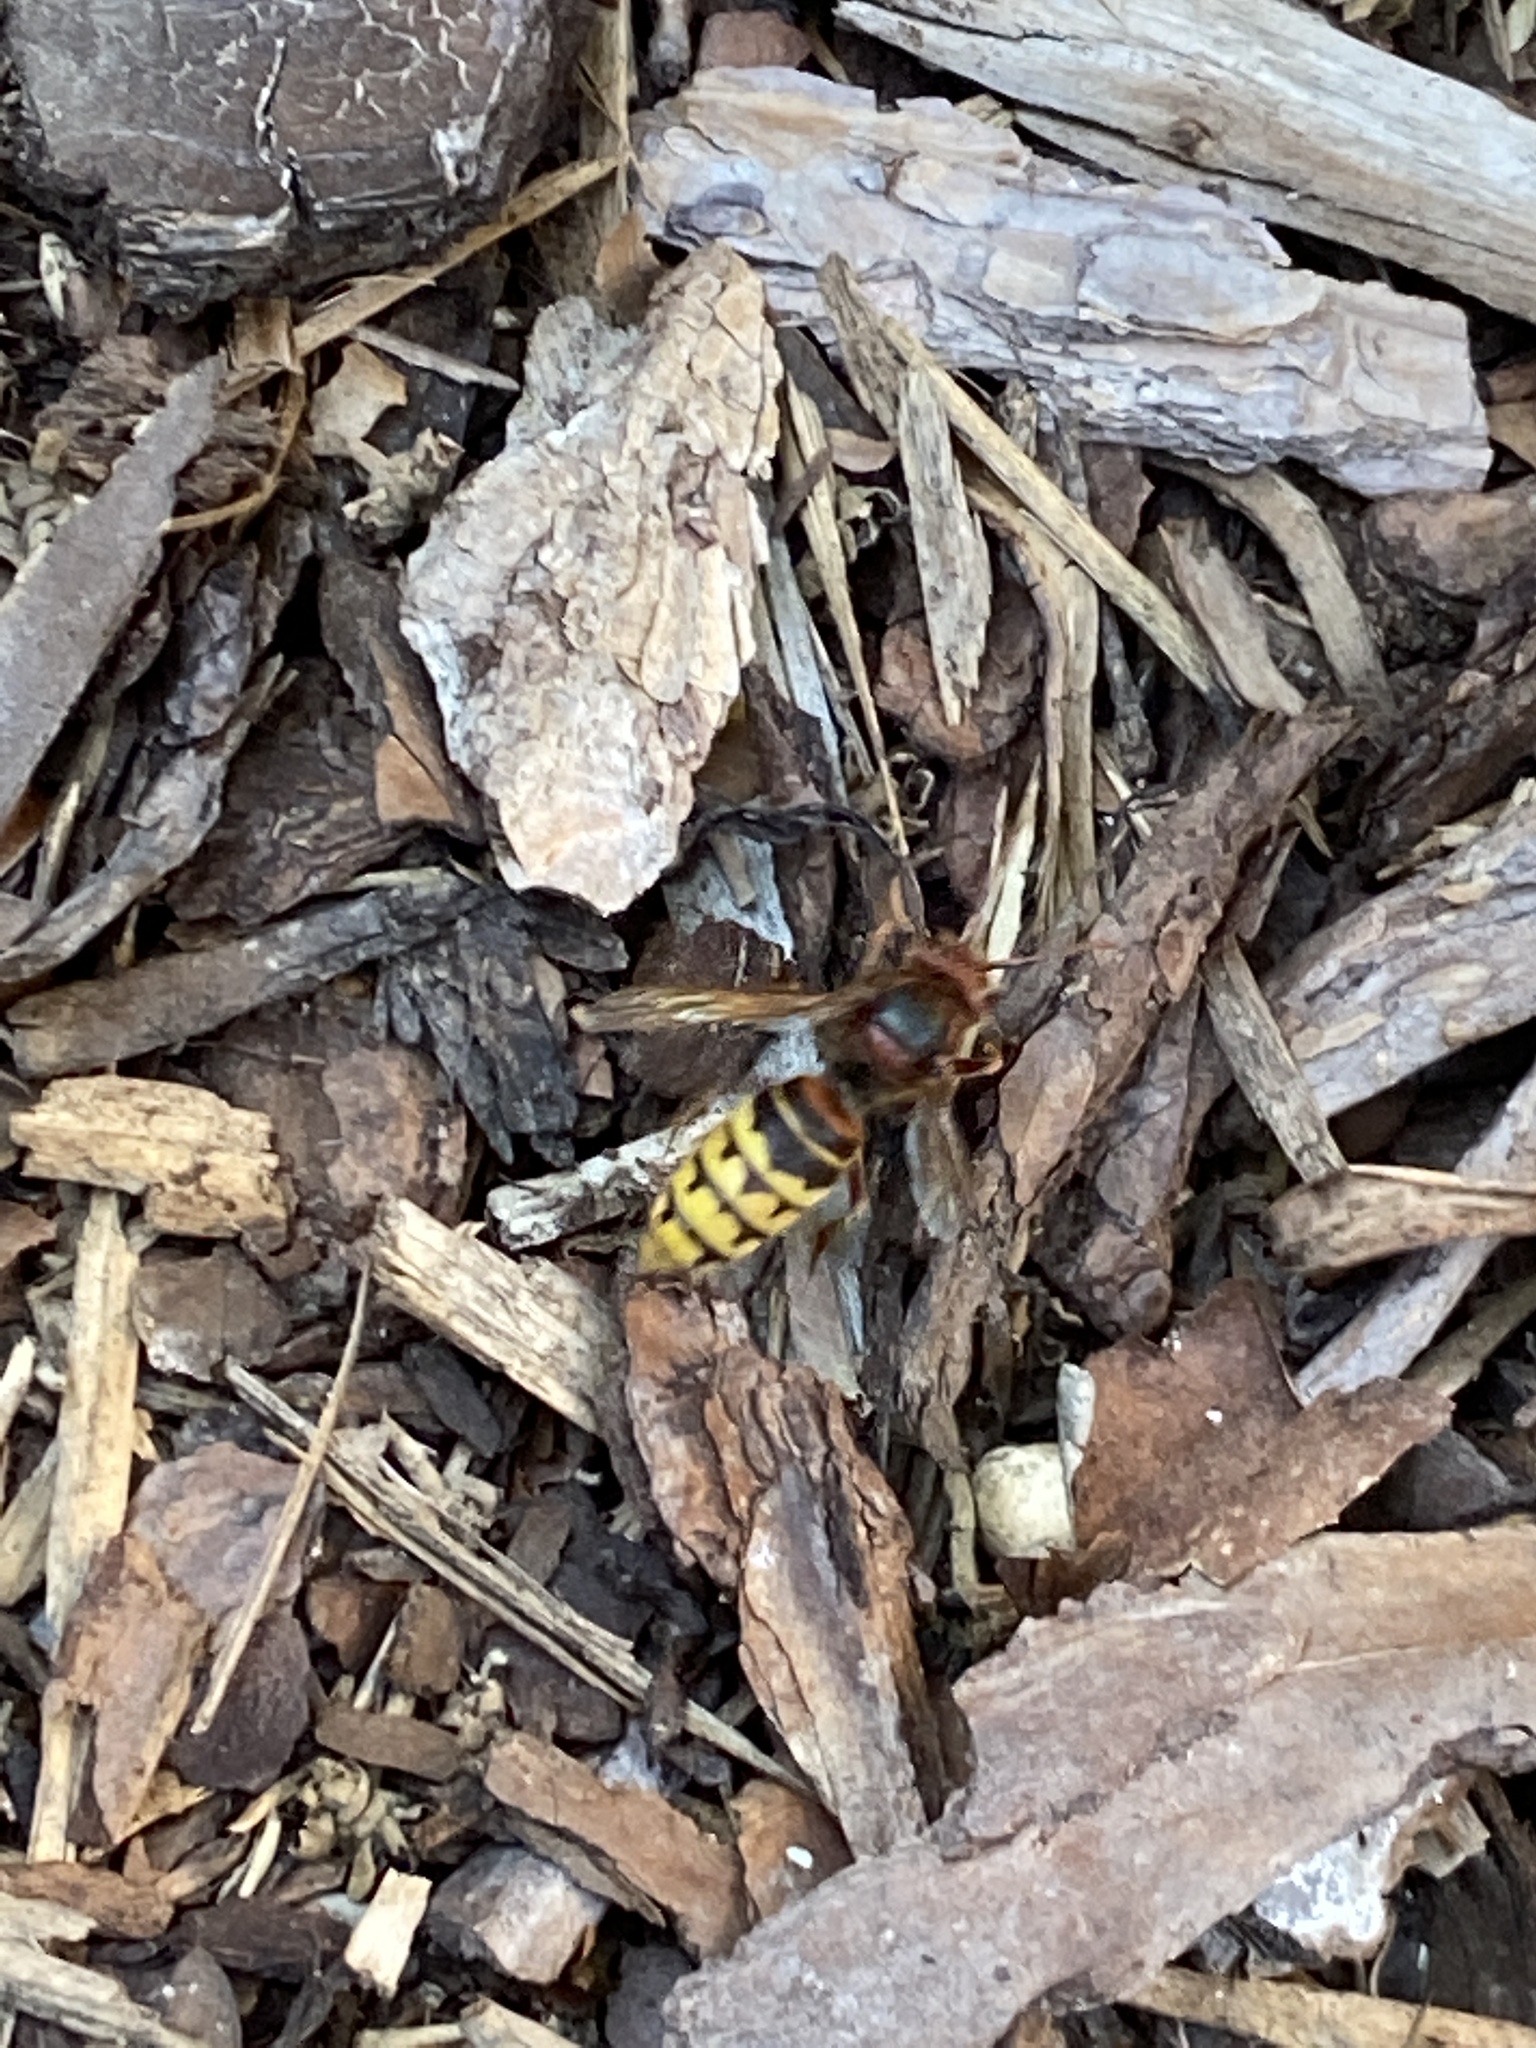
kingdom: Animalia
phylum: Arthropoda
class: Insecta
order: Hymenoptera
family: Vespidae
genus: Vespa
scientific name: Vespa crabro
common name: Hornet
